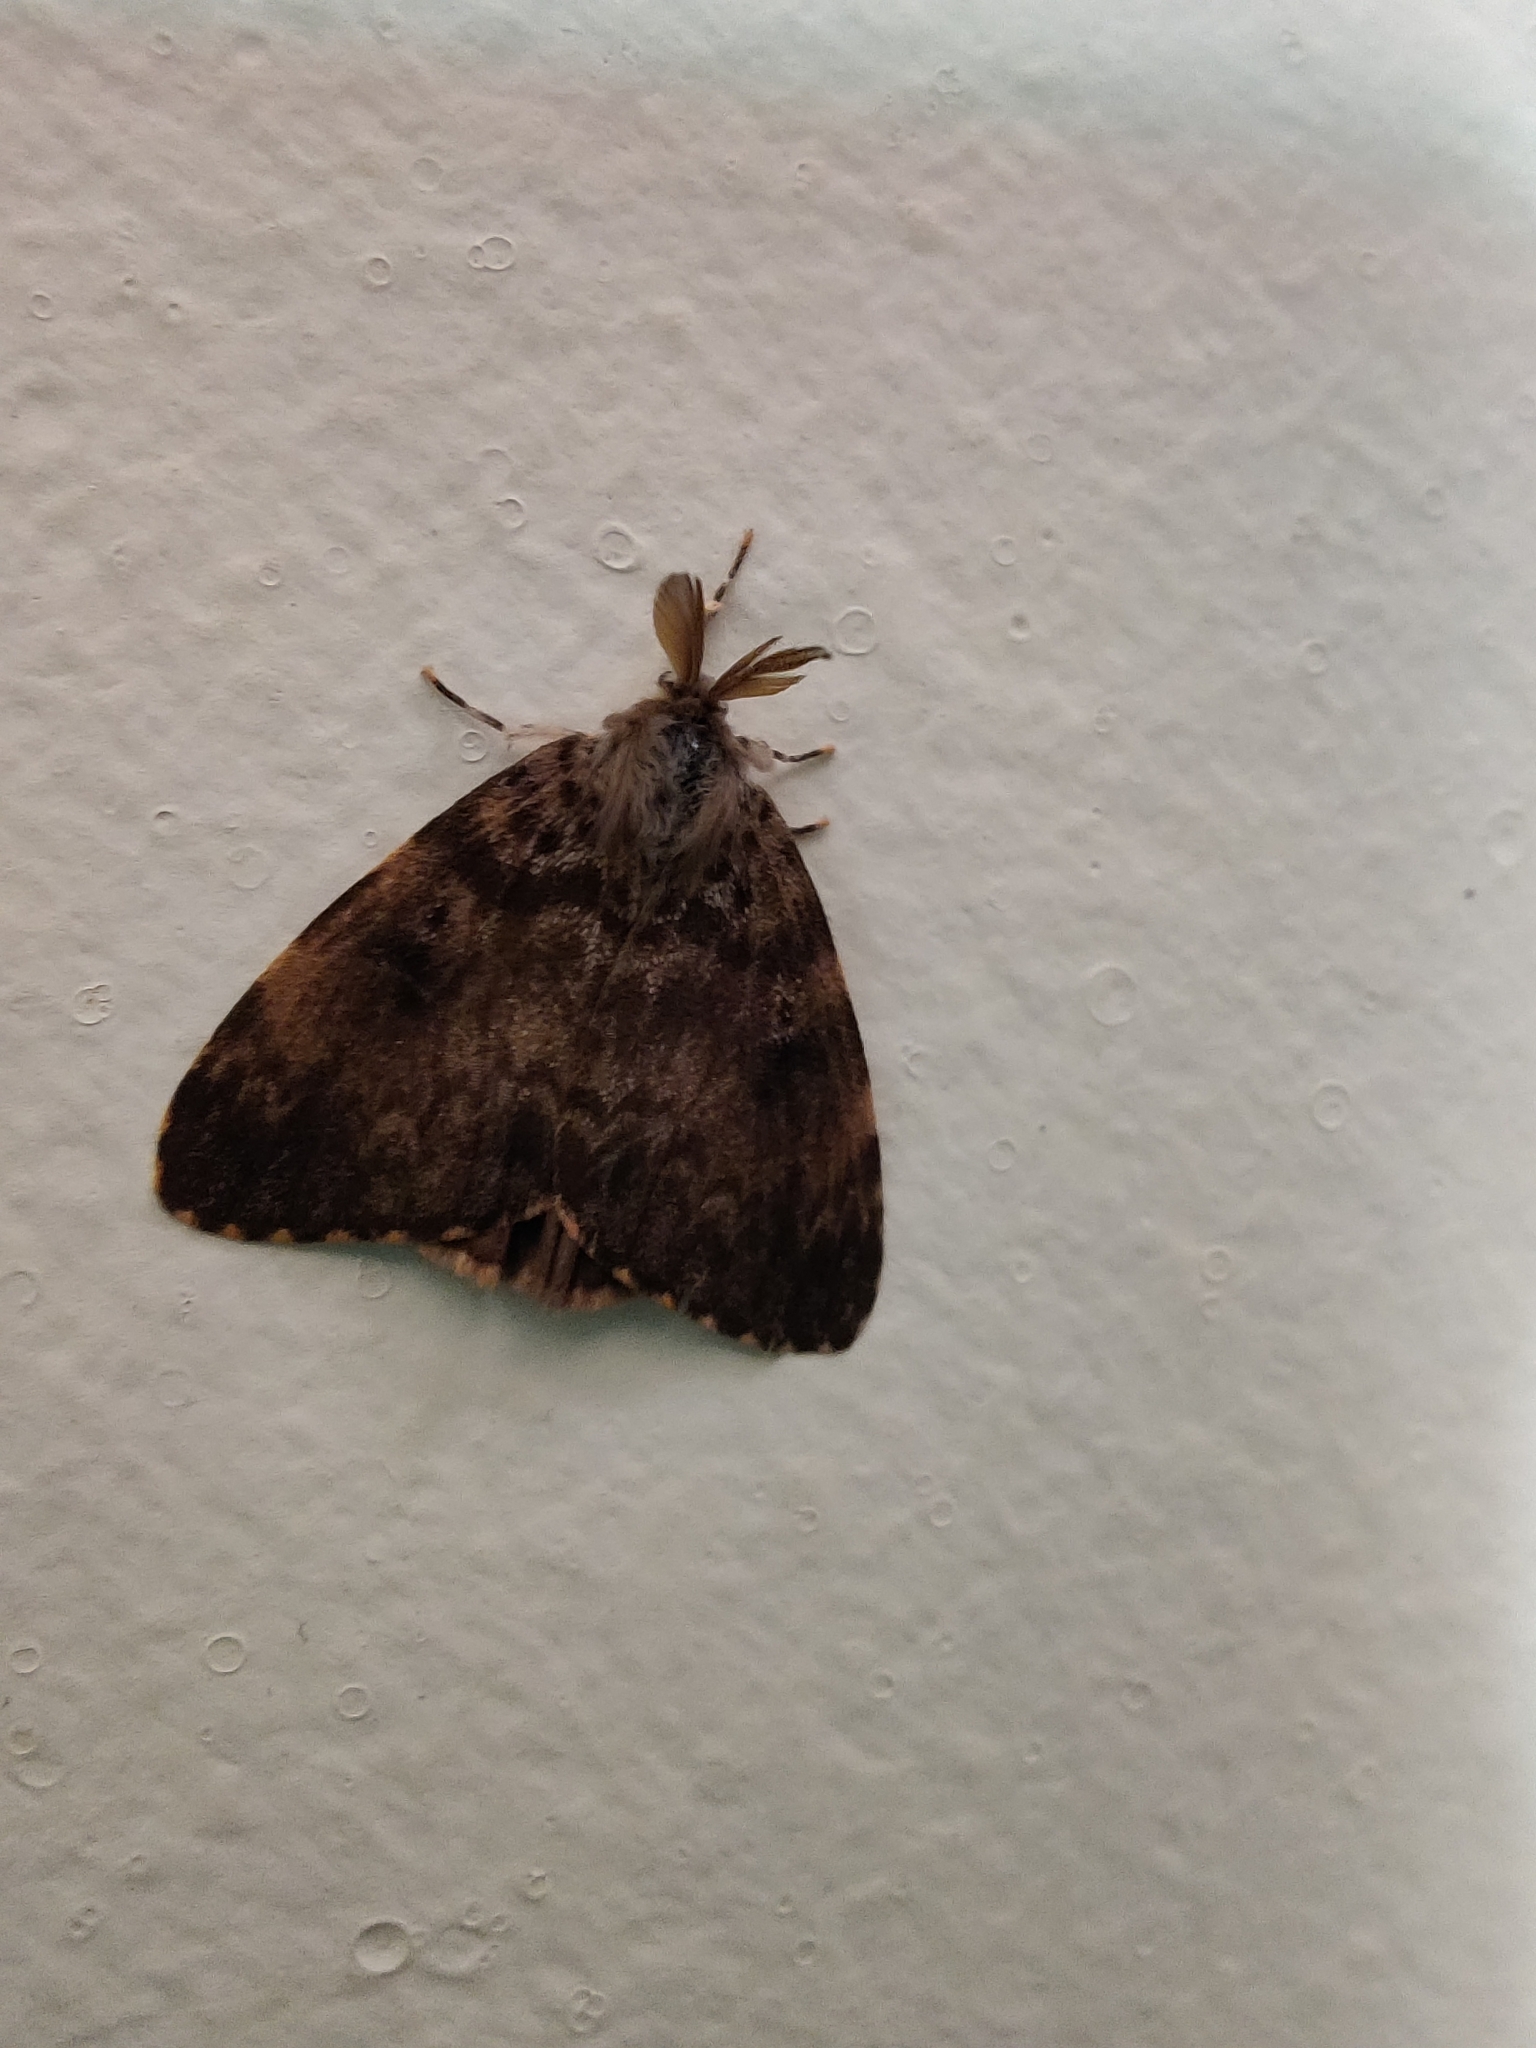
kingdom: Animalia
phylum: Arthropoda
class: Insecta
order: Lepidoptera
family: Erebidae
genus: Lymantria
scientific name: Lymantria ampla
